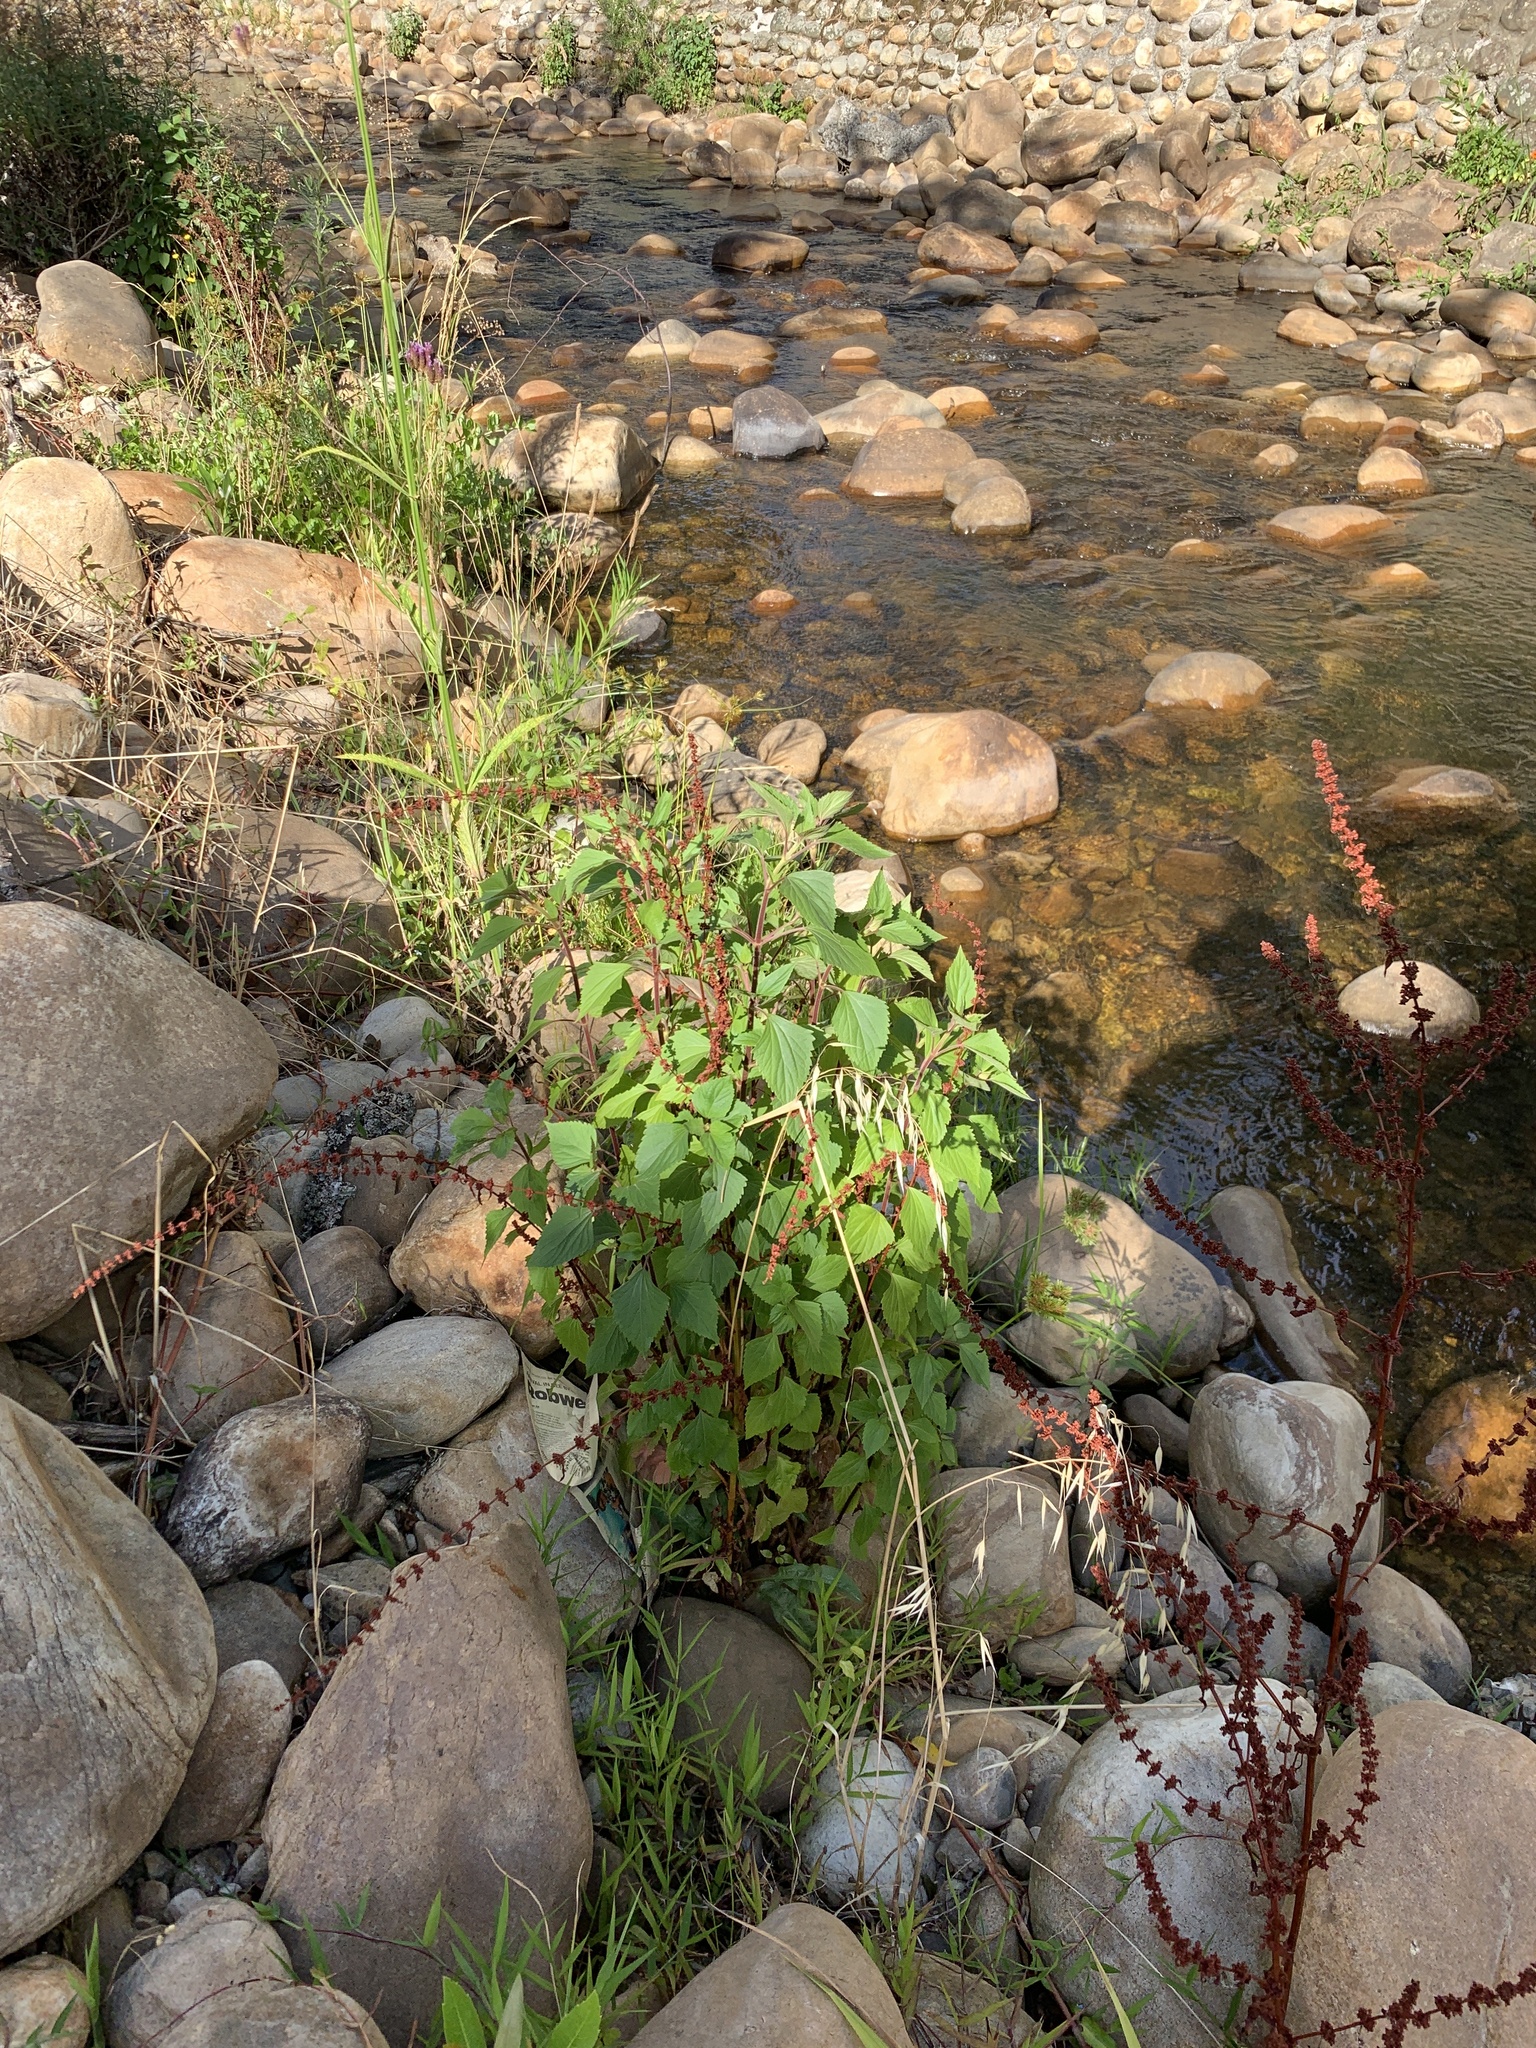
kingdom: Plantae
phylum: Tracheophyta
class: Magnoliopsida
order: Asterales
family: Asteraceae
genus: Ageratina
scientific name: Ageratina adenophora
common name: Sticky snakeroot
